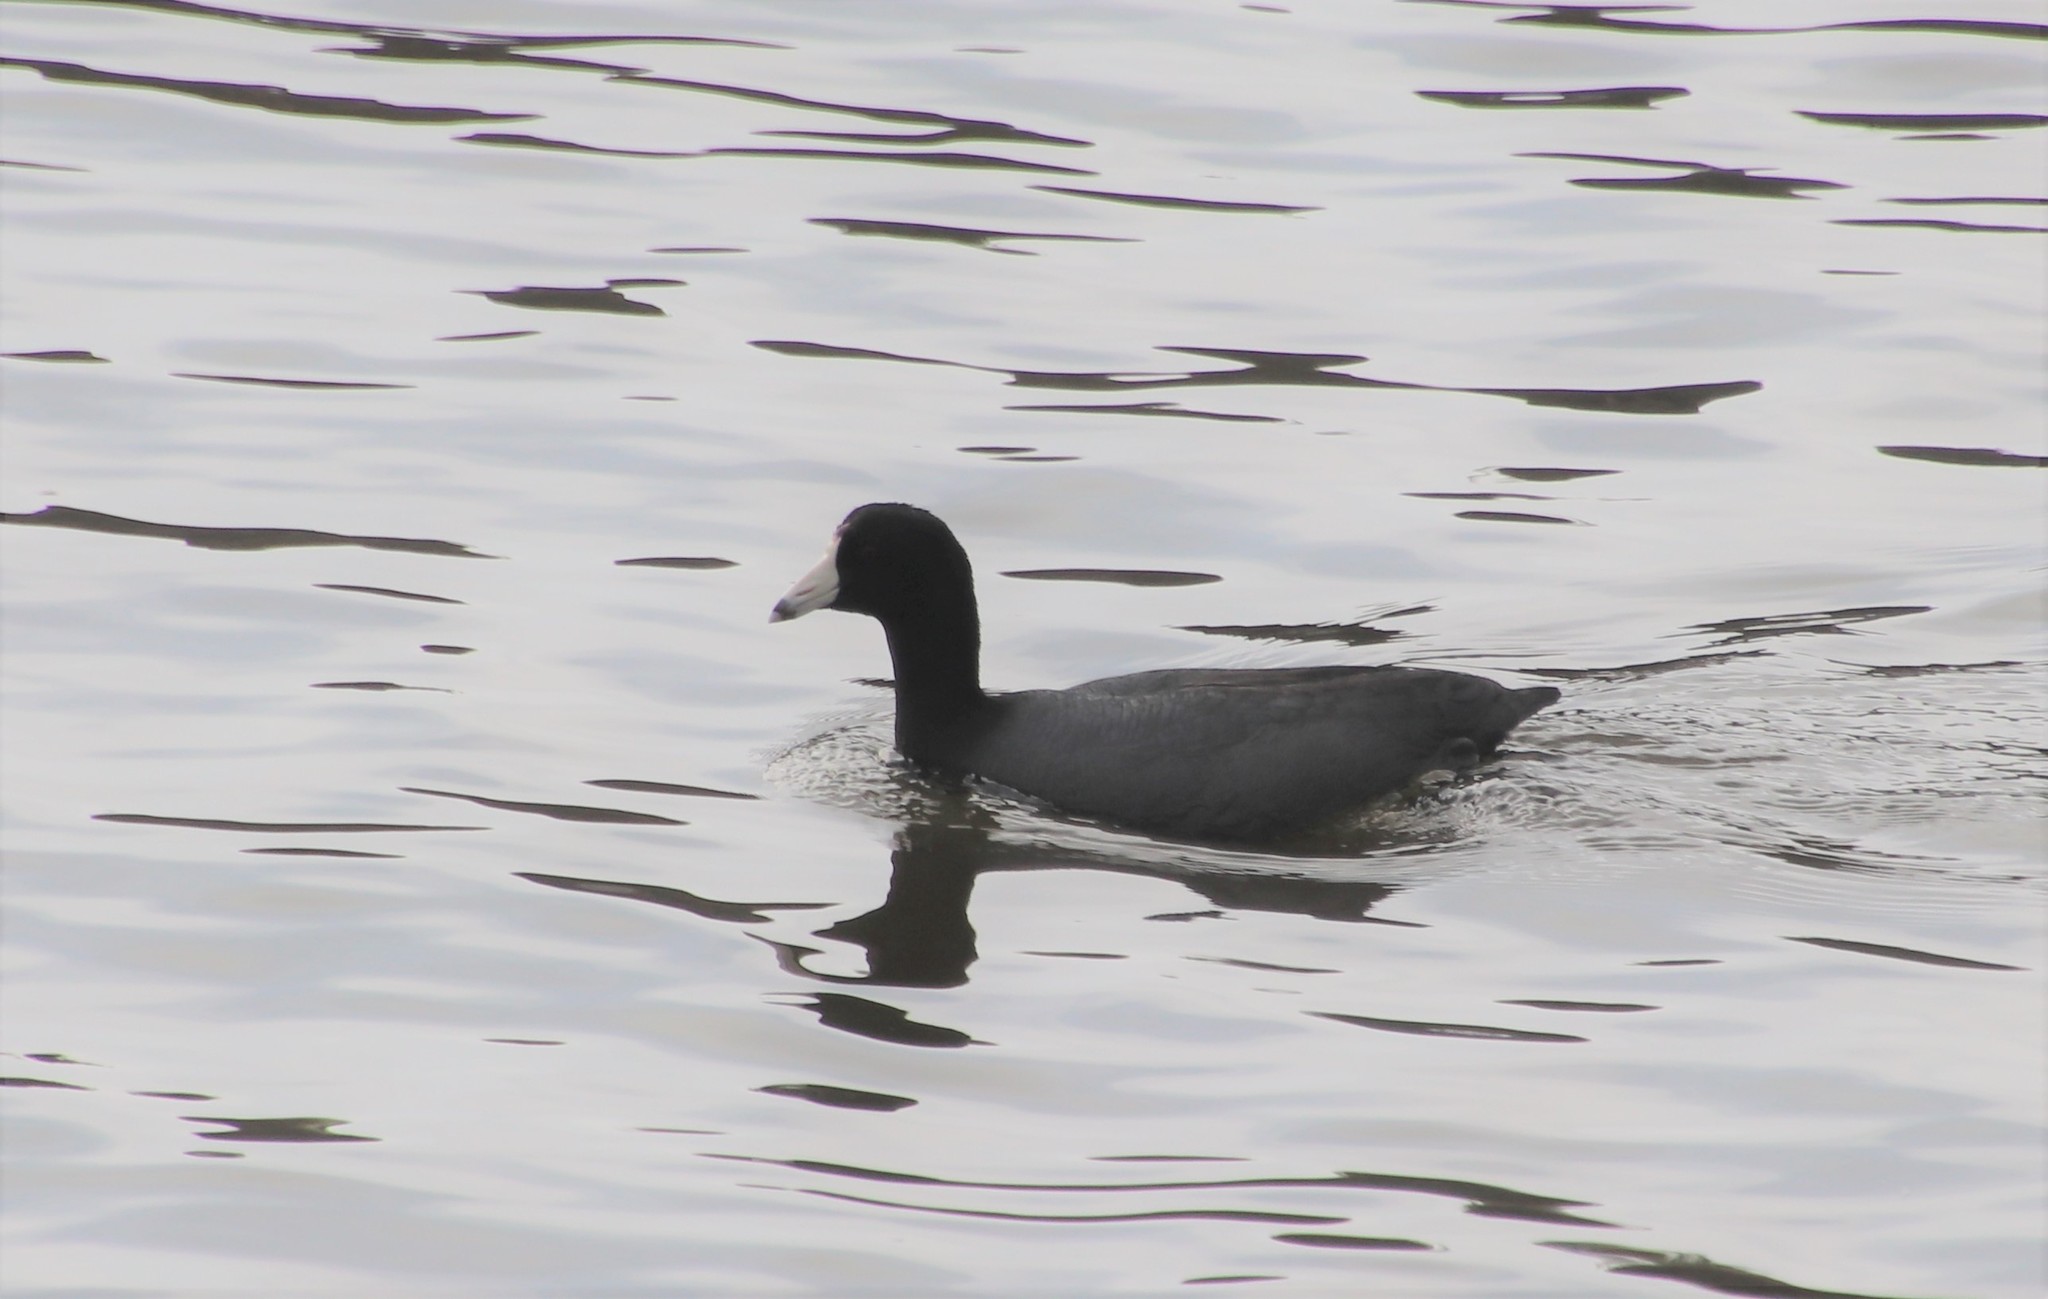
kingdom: Animalia
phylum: Chordata
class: Aves
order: Gruiformes
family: Rallidae
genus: Fulica
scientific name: Fulica americana
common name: American coot
